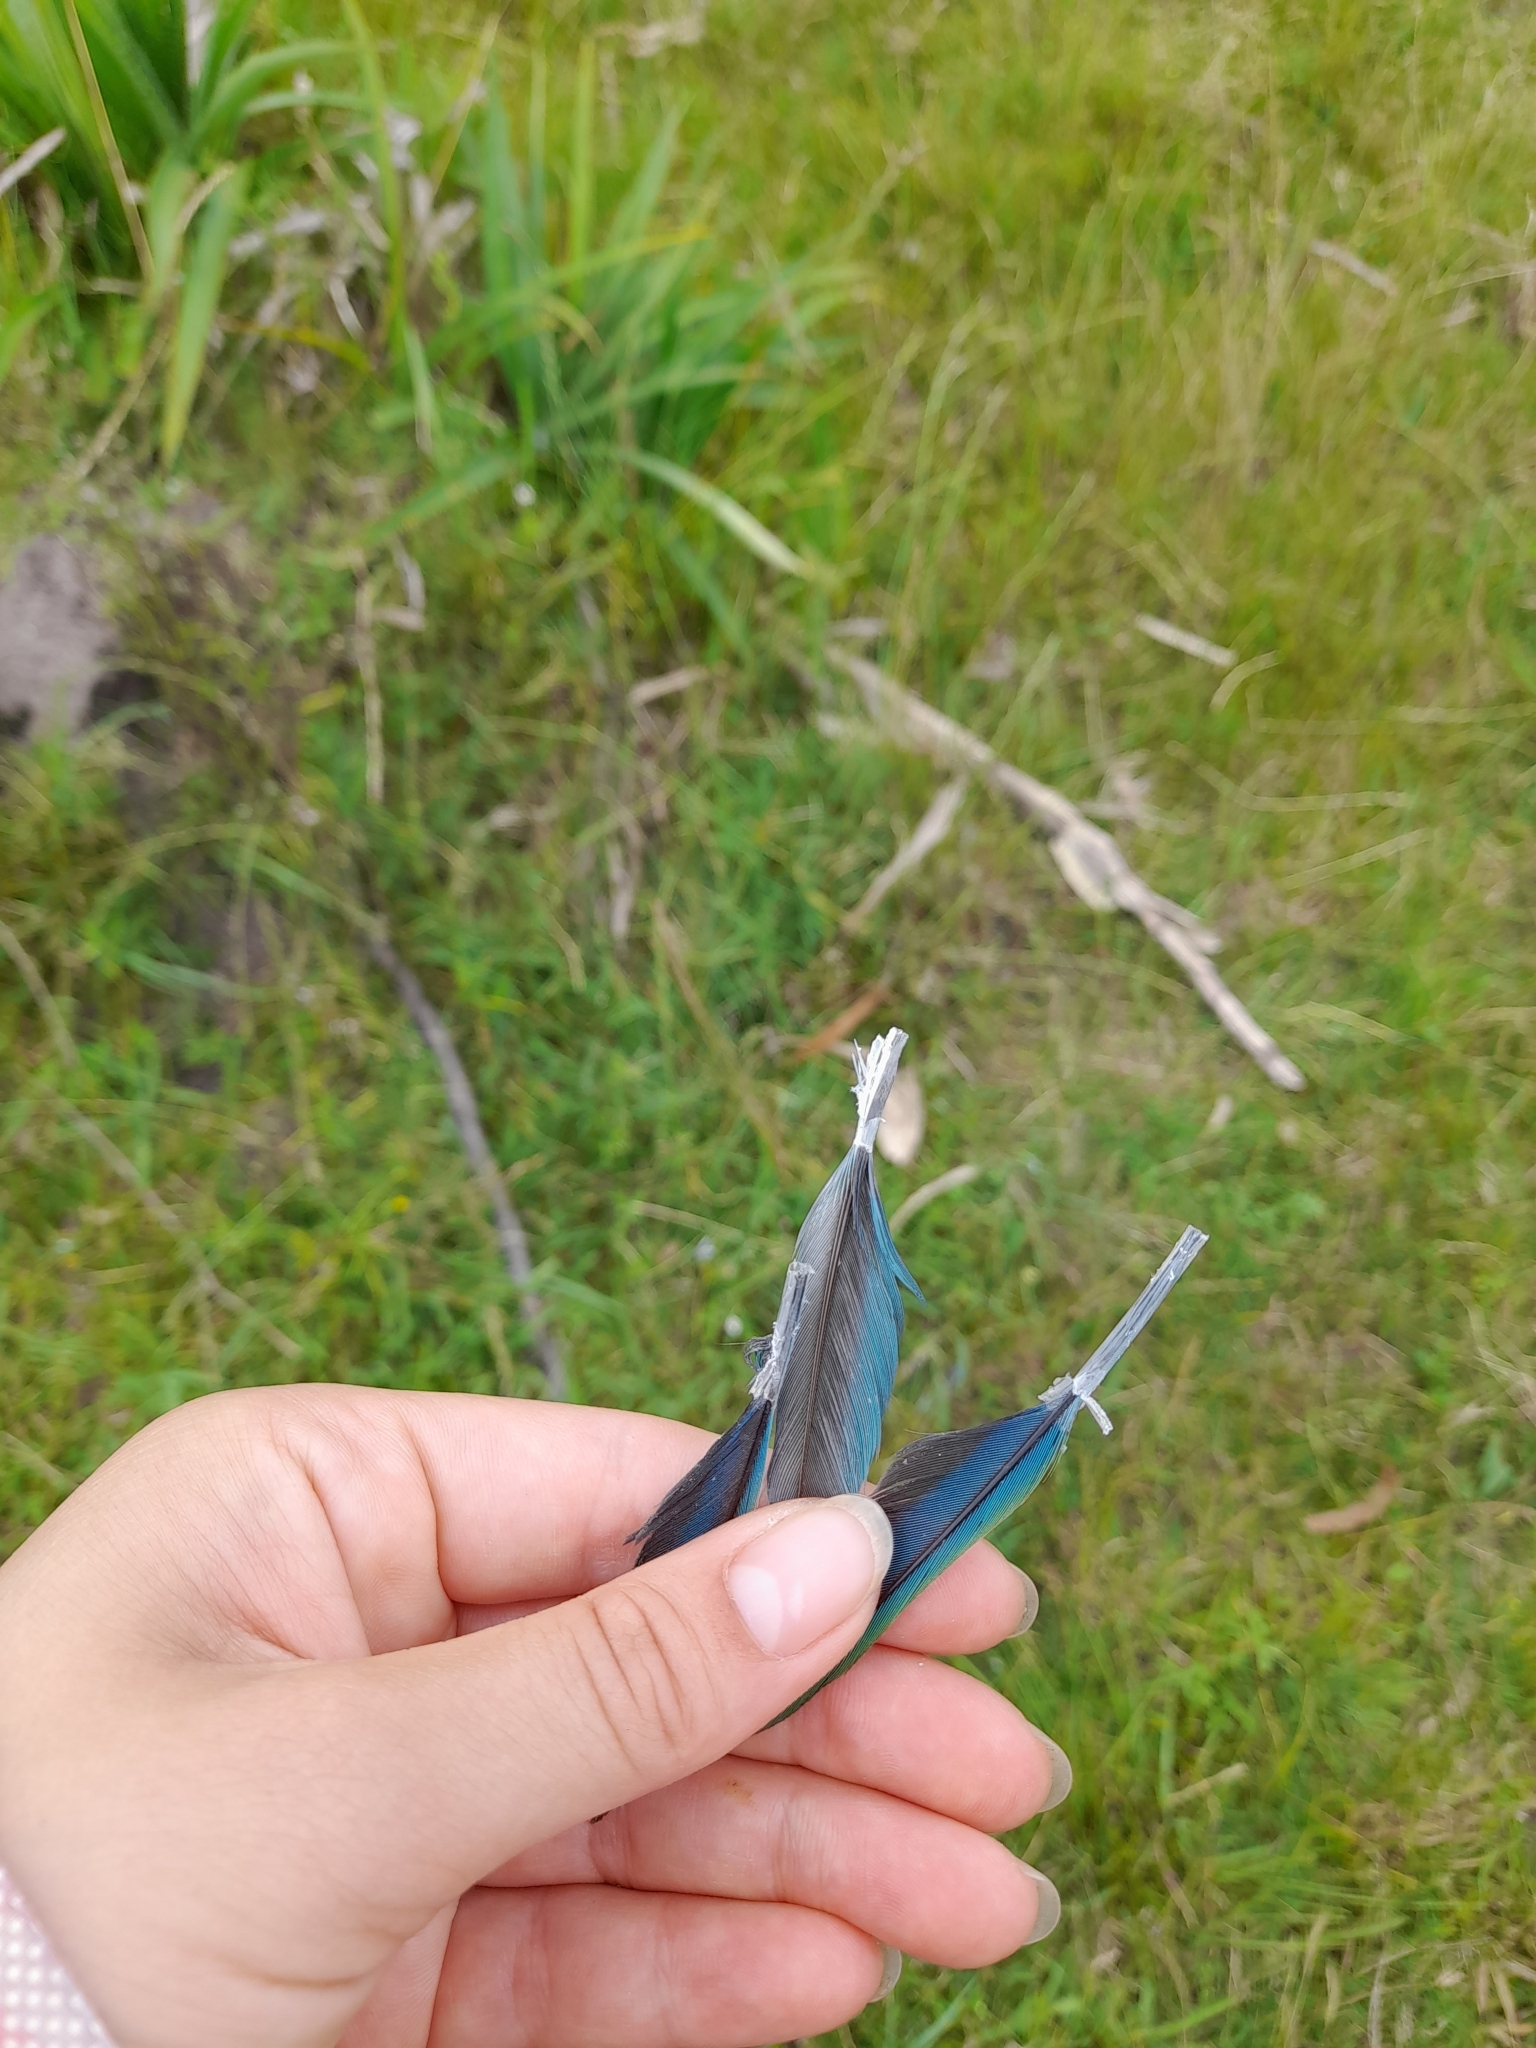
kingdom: Animalia
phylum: Chordata
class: Aves
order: Psittaciformes
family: Psittacidae
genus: Myiopsitta
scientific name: Myiopsitta monachus
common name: Monk parakeet
